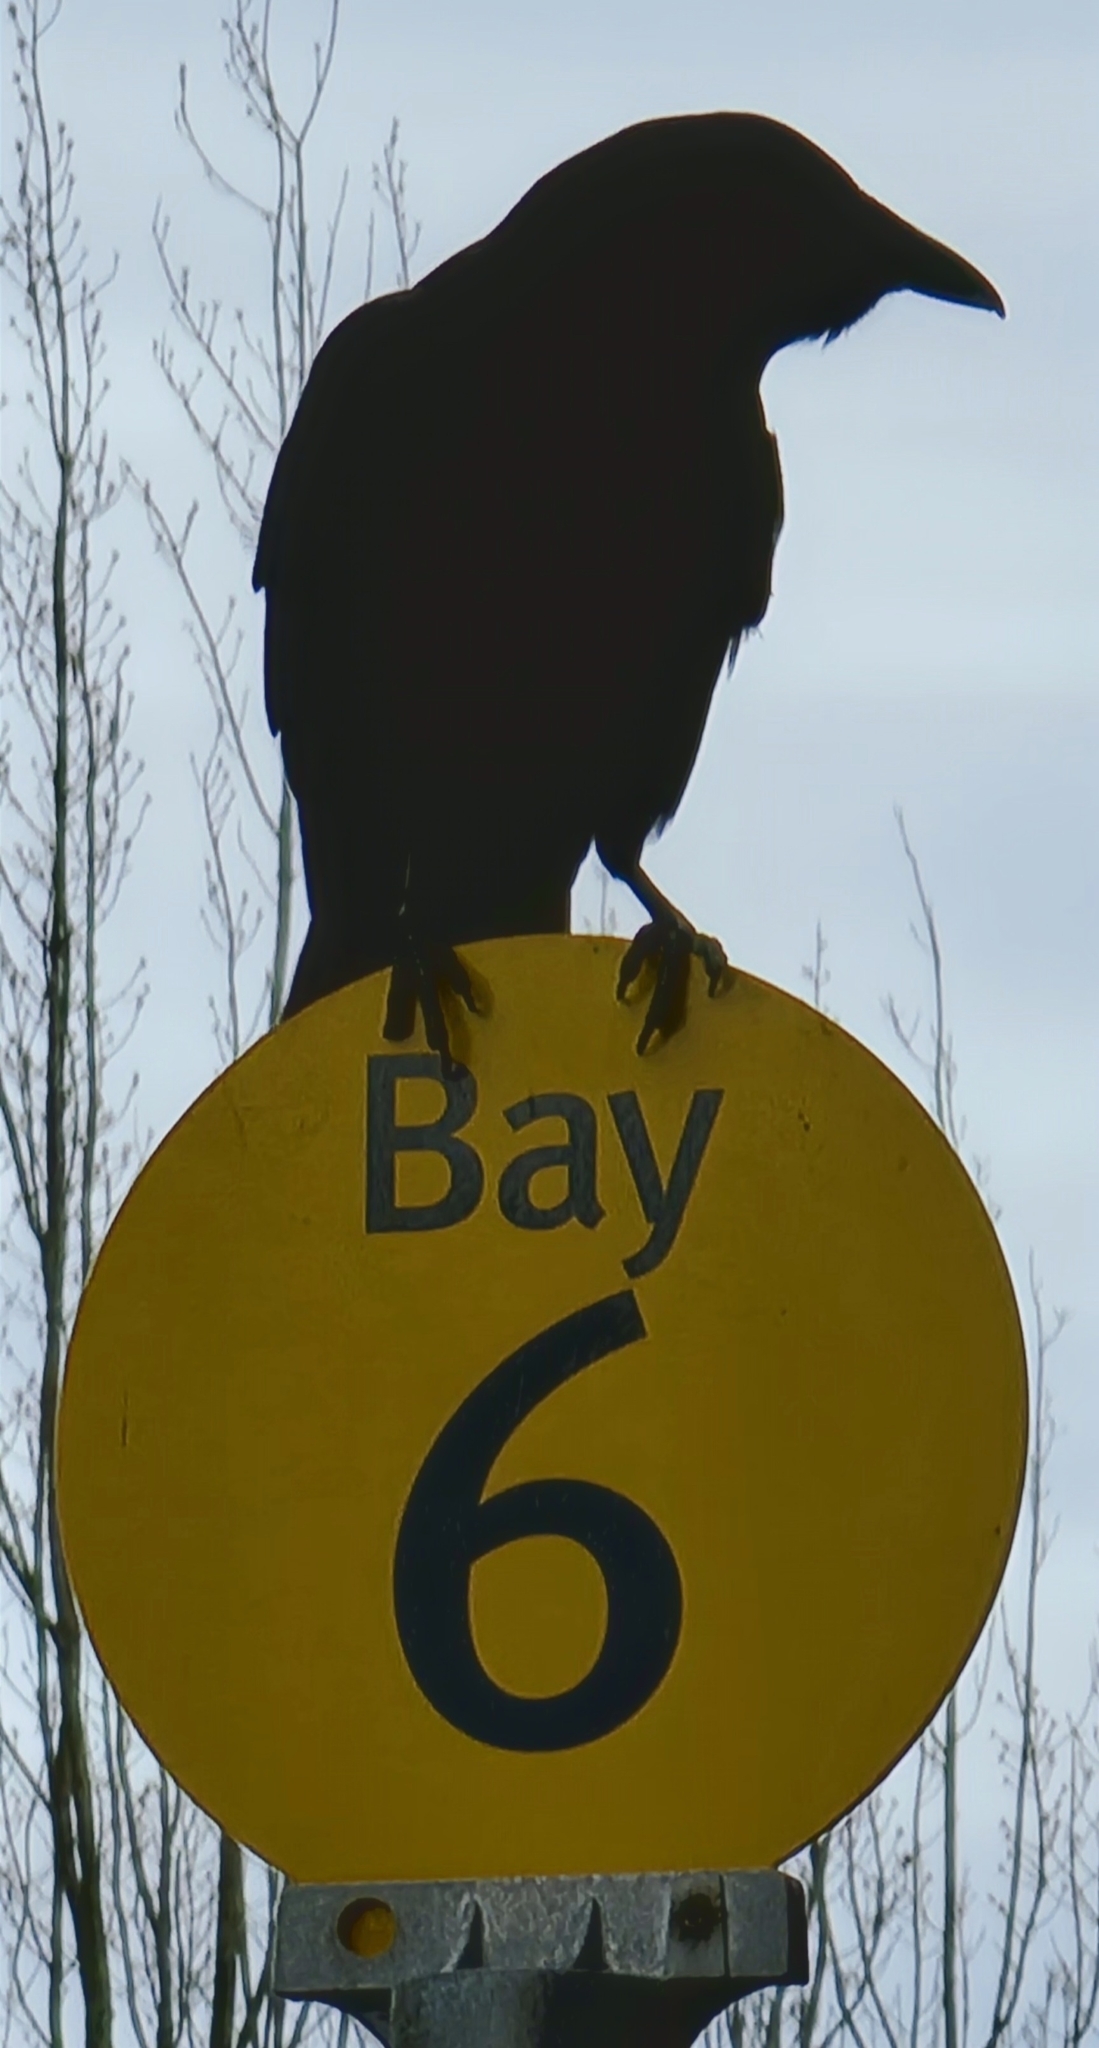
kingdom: Animalia
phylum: Chordata
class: Aves
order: Passeriformes
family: Corvidae
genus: Corvus
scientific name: Corvus brachyrhynchos
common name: American crow
